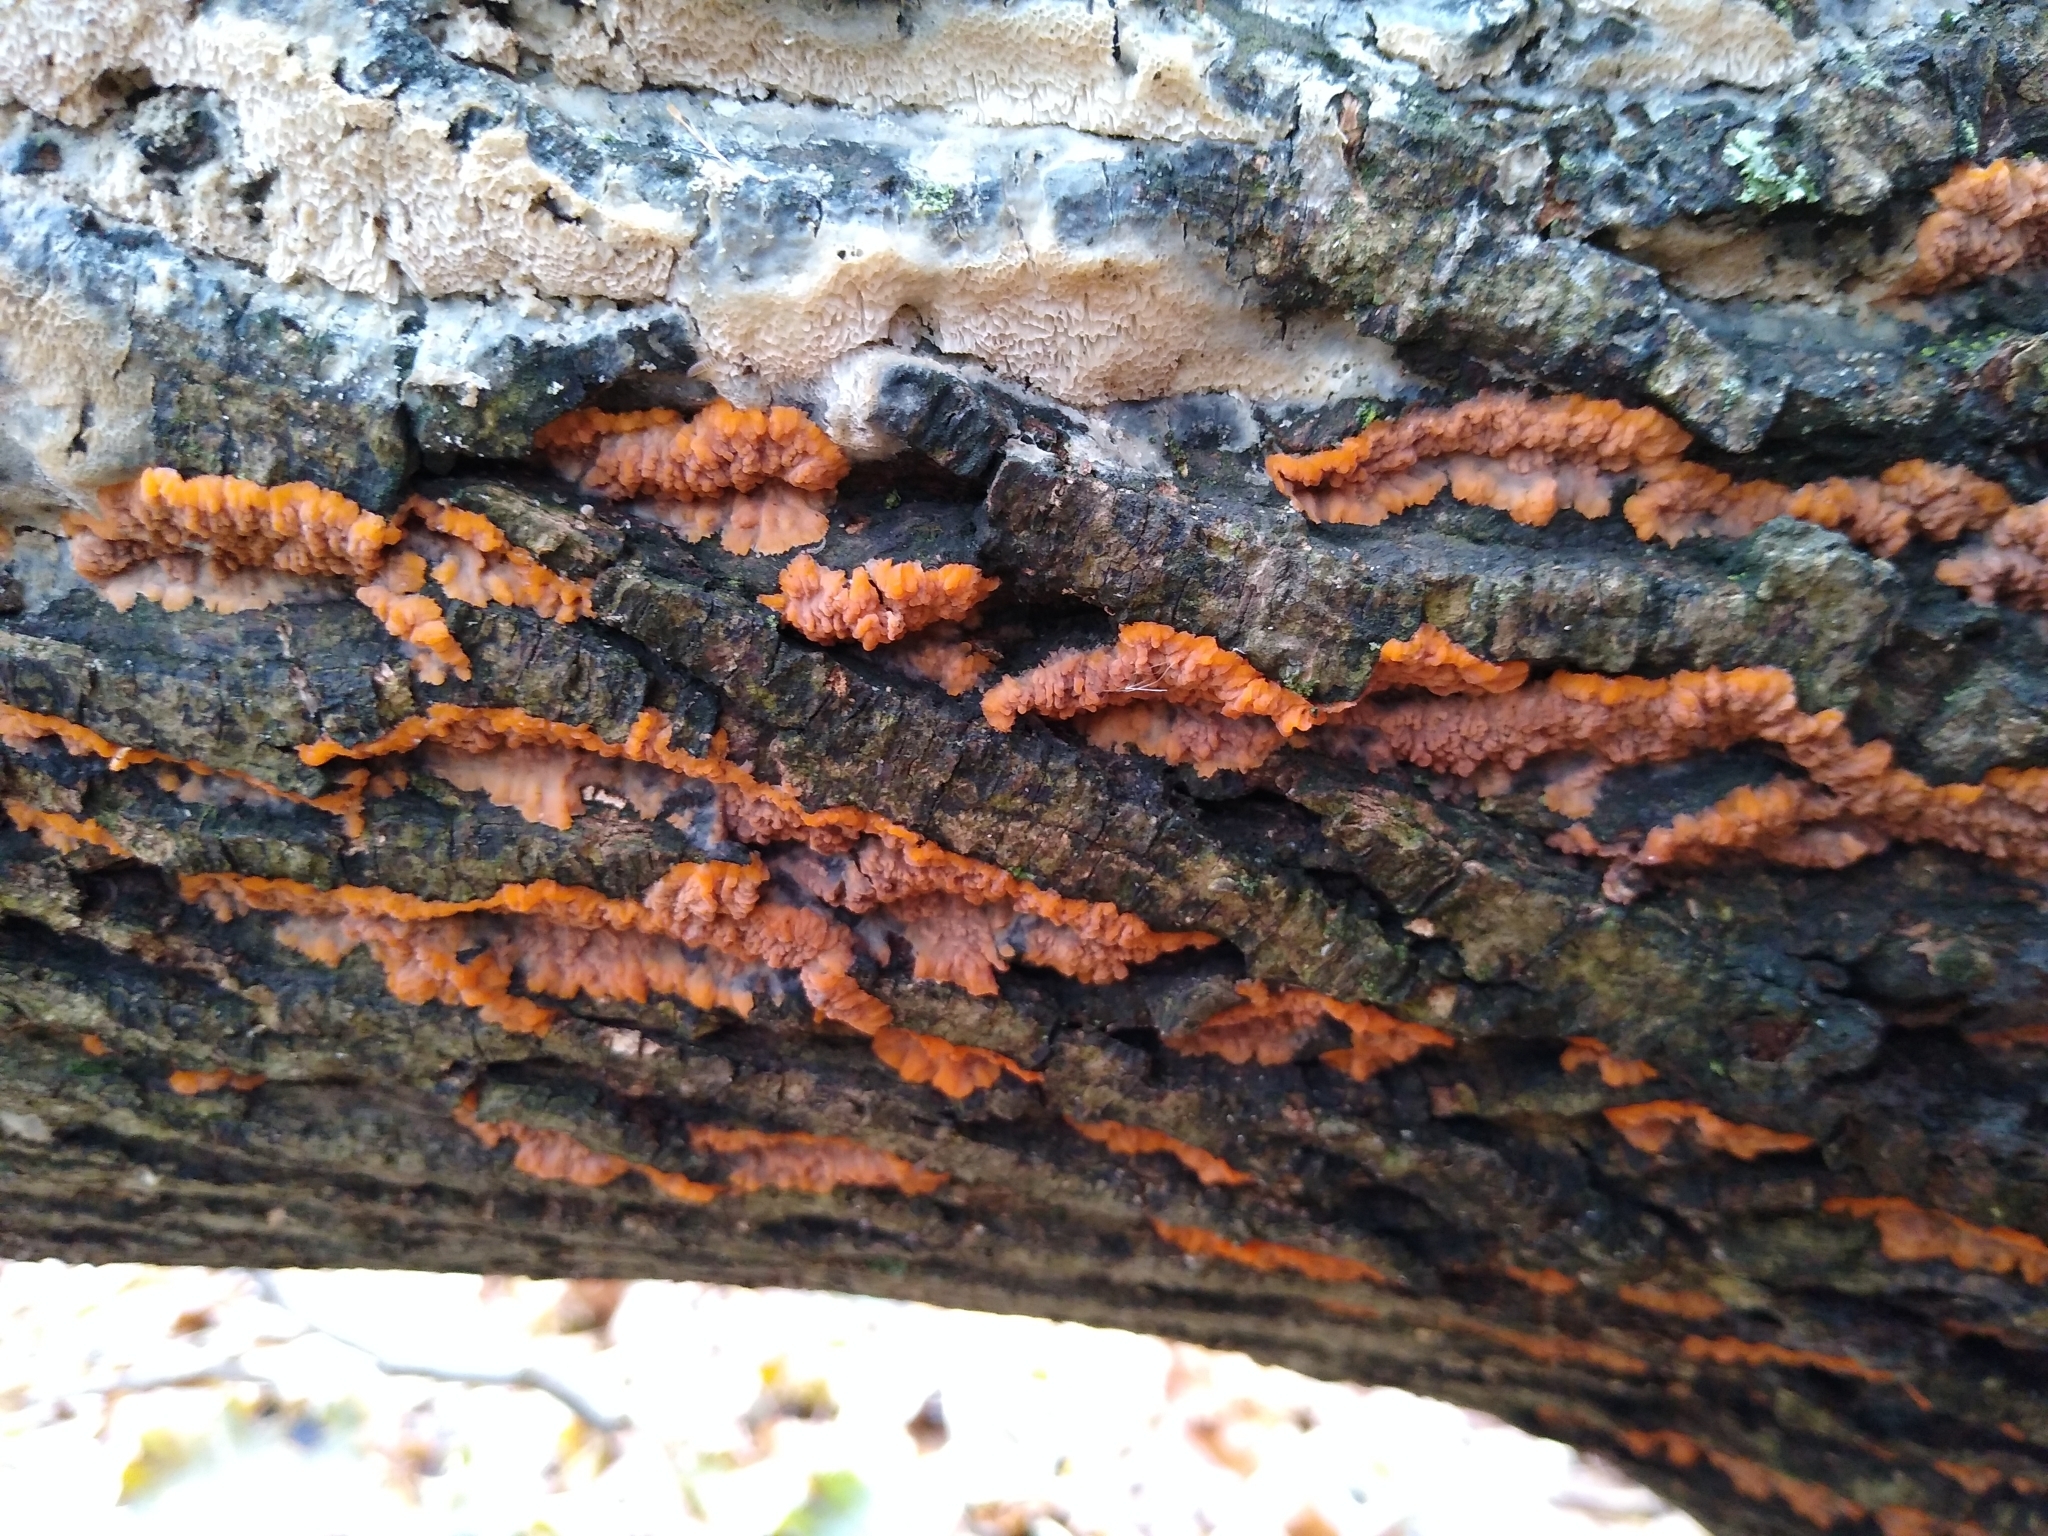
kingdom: Fungi
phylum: Basidiomycota
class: Agaricomycetes
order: Polyporales
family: Meruliaceae
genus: Phlebia
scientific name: Phlebia radiata
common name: Wrinkled crust
